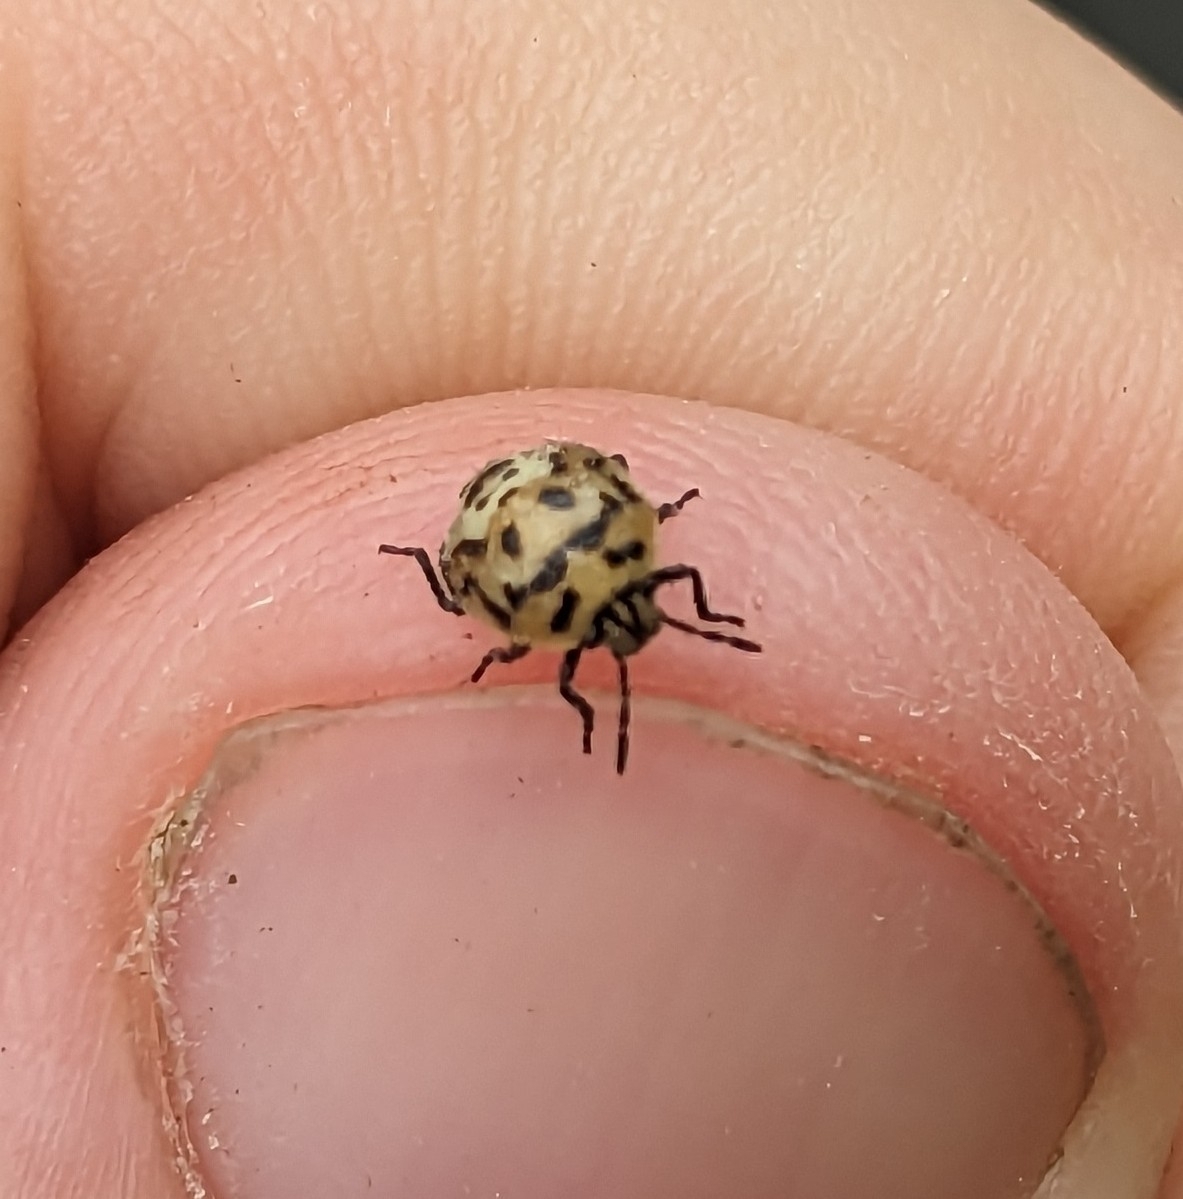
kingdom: Animalia
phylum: Arthropoda
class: Insecta
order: Hemiptera
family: Pentatomidae
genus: Cosmopepla
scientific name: Cosmopepla lintneriana
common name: Twice-stabbed stink bug
